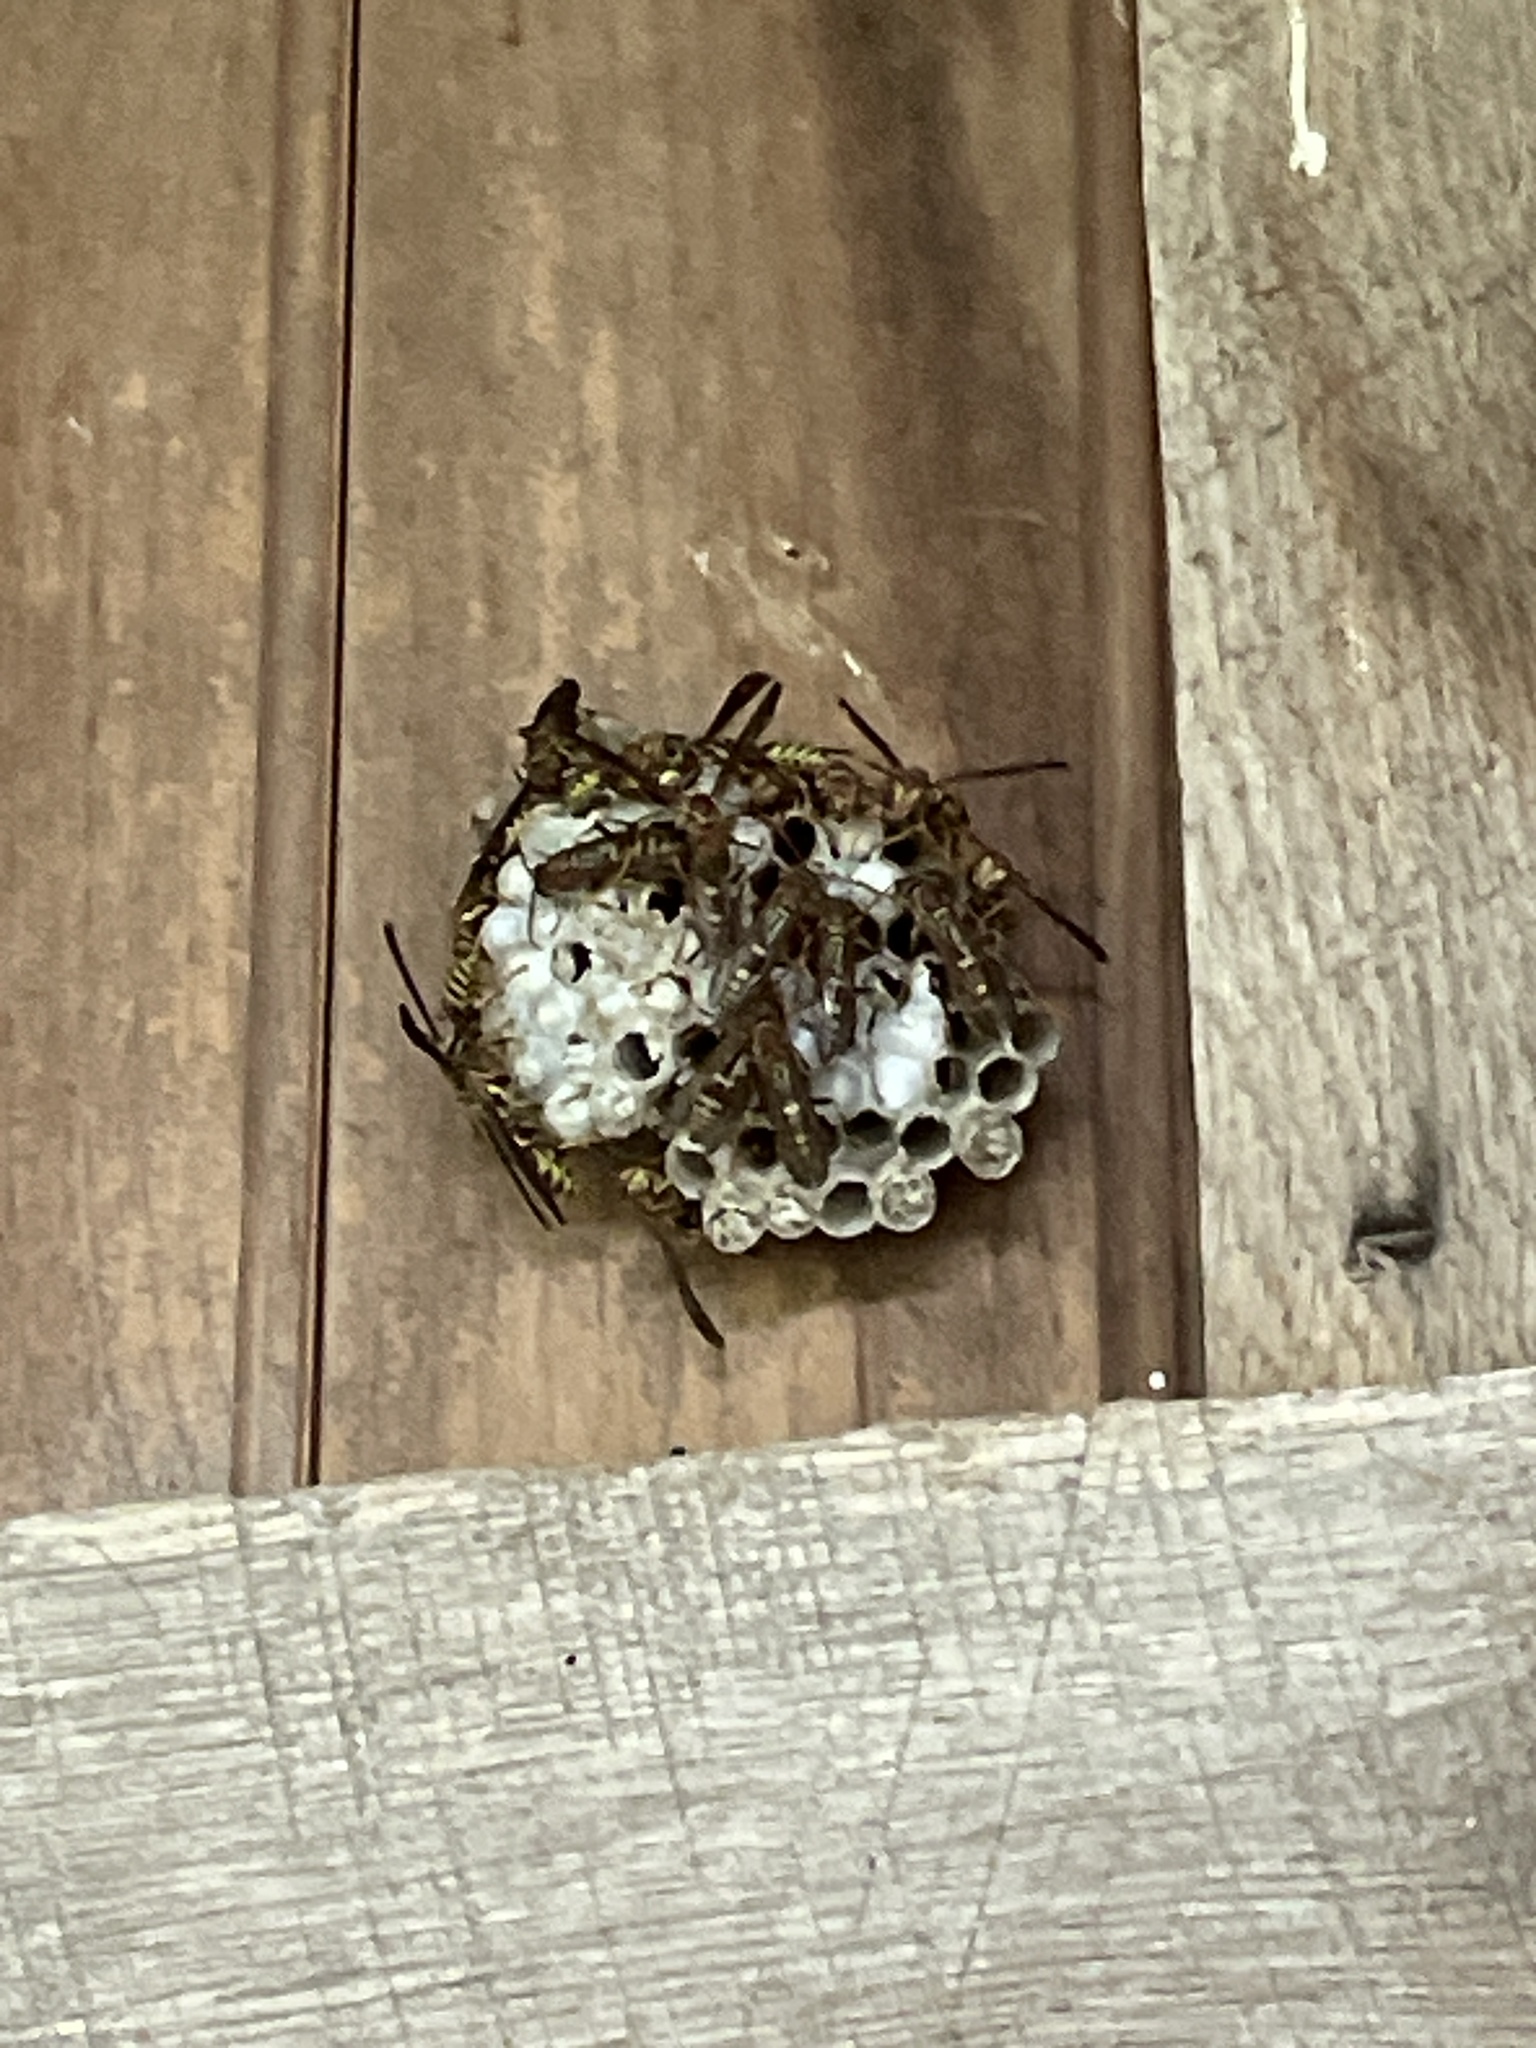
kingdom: Animalia
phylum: Arthropoda
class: Insecta
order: Hymenoptera
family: Eumenidae
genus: Polistes
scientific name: Polistes exclamans
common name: Paper wasp
